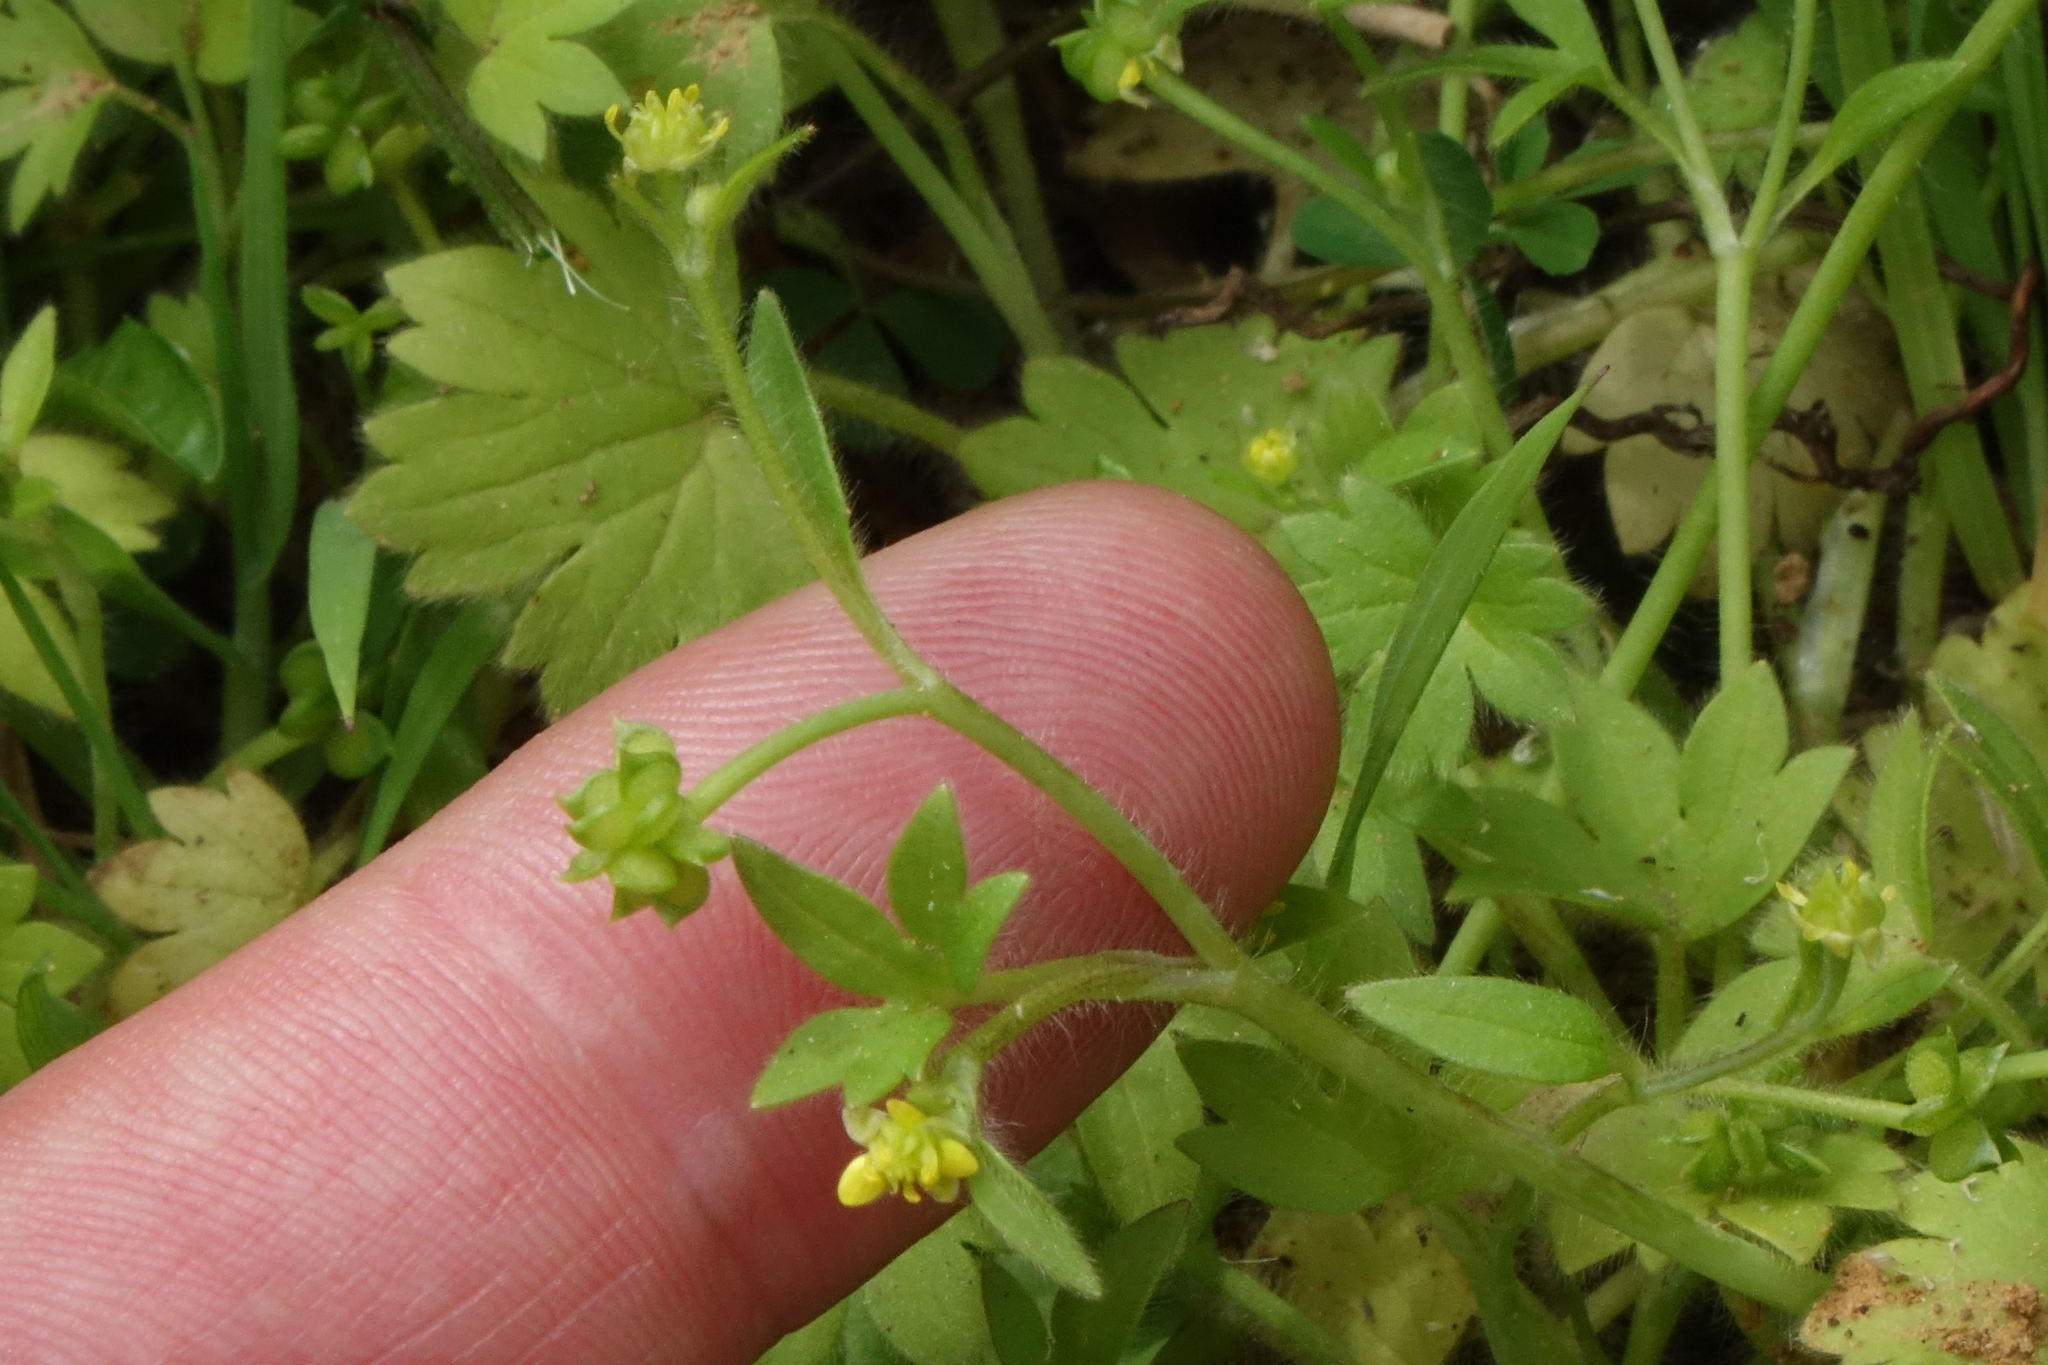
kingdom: Plantae
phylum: Tracheophyta
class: Magnoliopsida
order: Ranunculales
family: Ranunculaceae
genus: Ranunculus
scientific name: Ranunculus parviflorus
